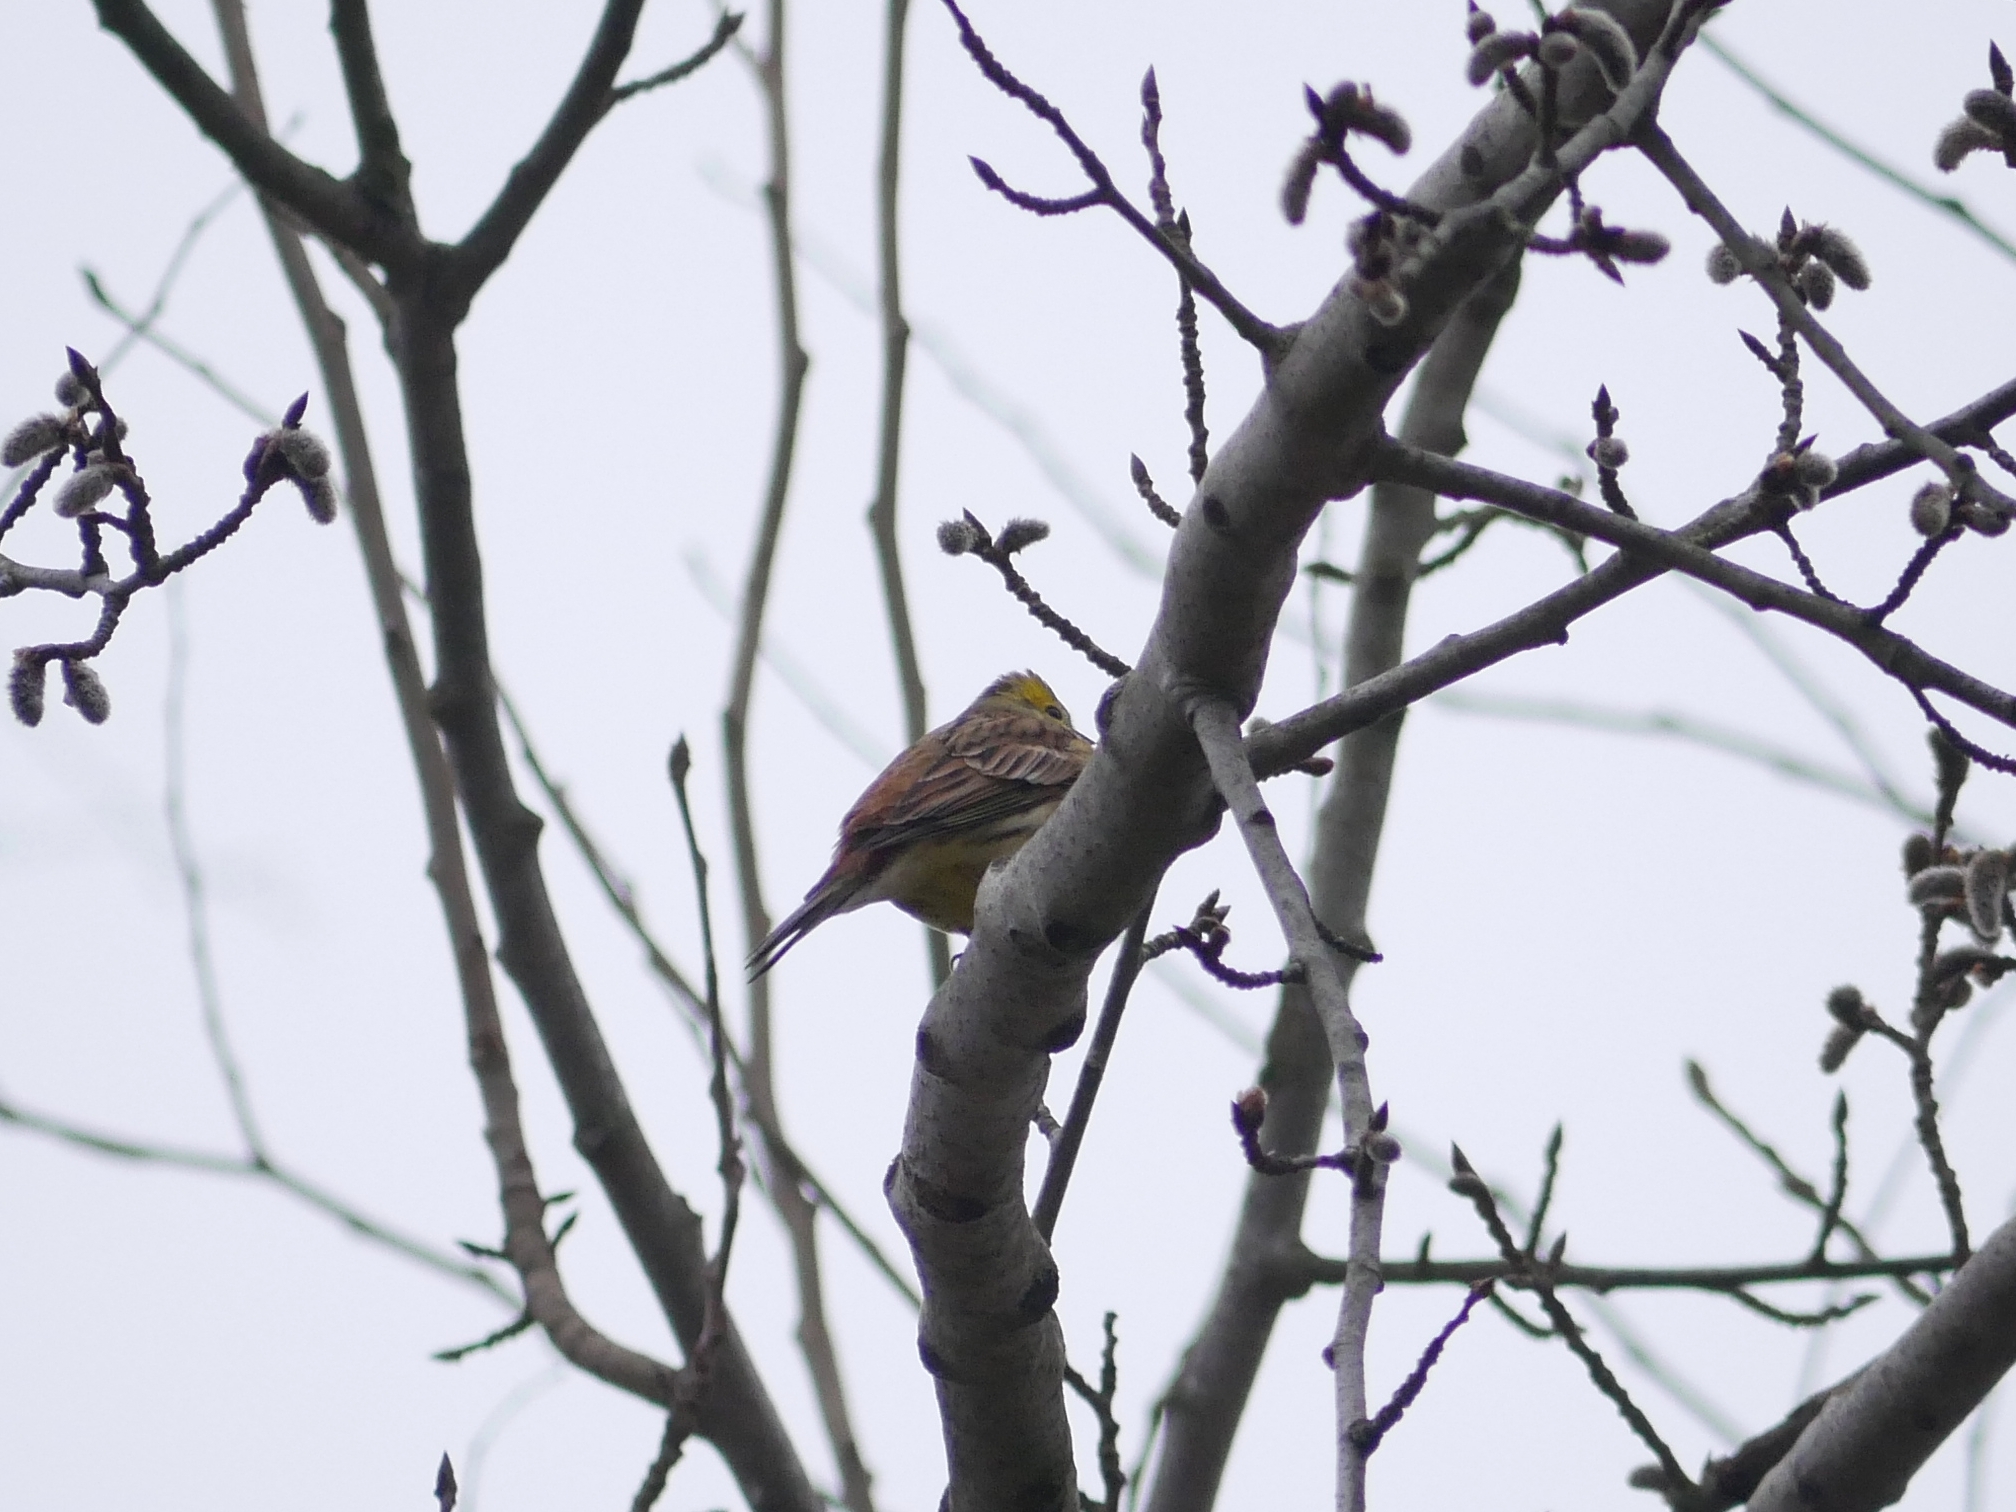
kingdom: Animalia
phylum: Chordata
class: Aves
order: Passeriformes
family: Emberizidae
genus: Emberiza
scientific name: Emberiza citrinella
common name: Yellowhammer
